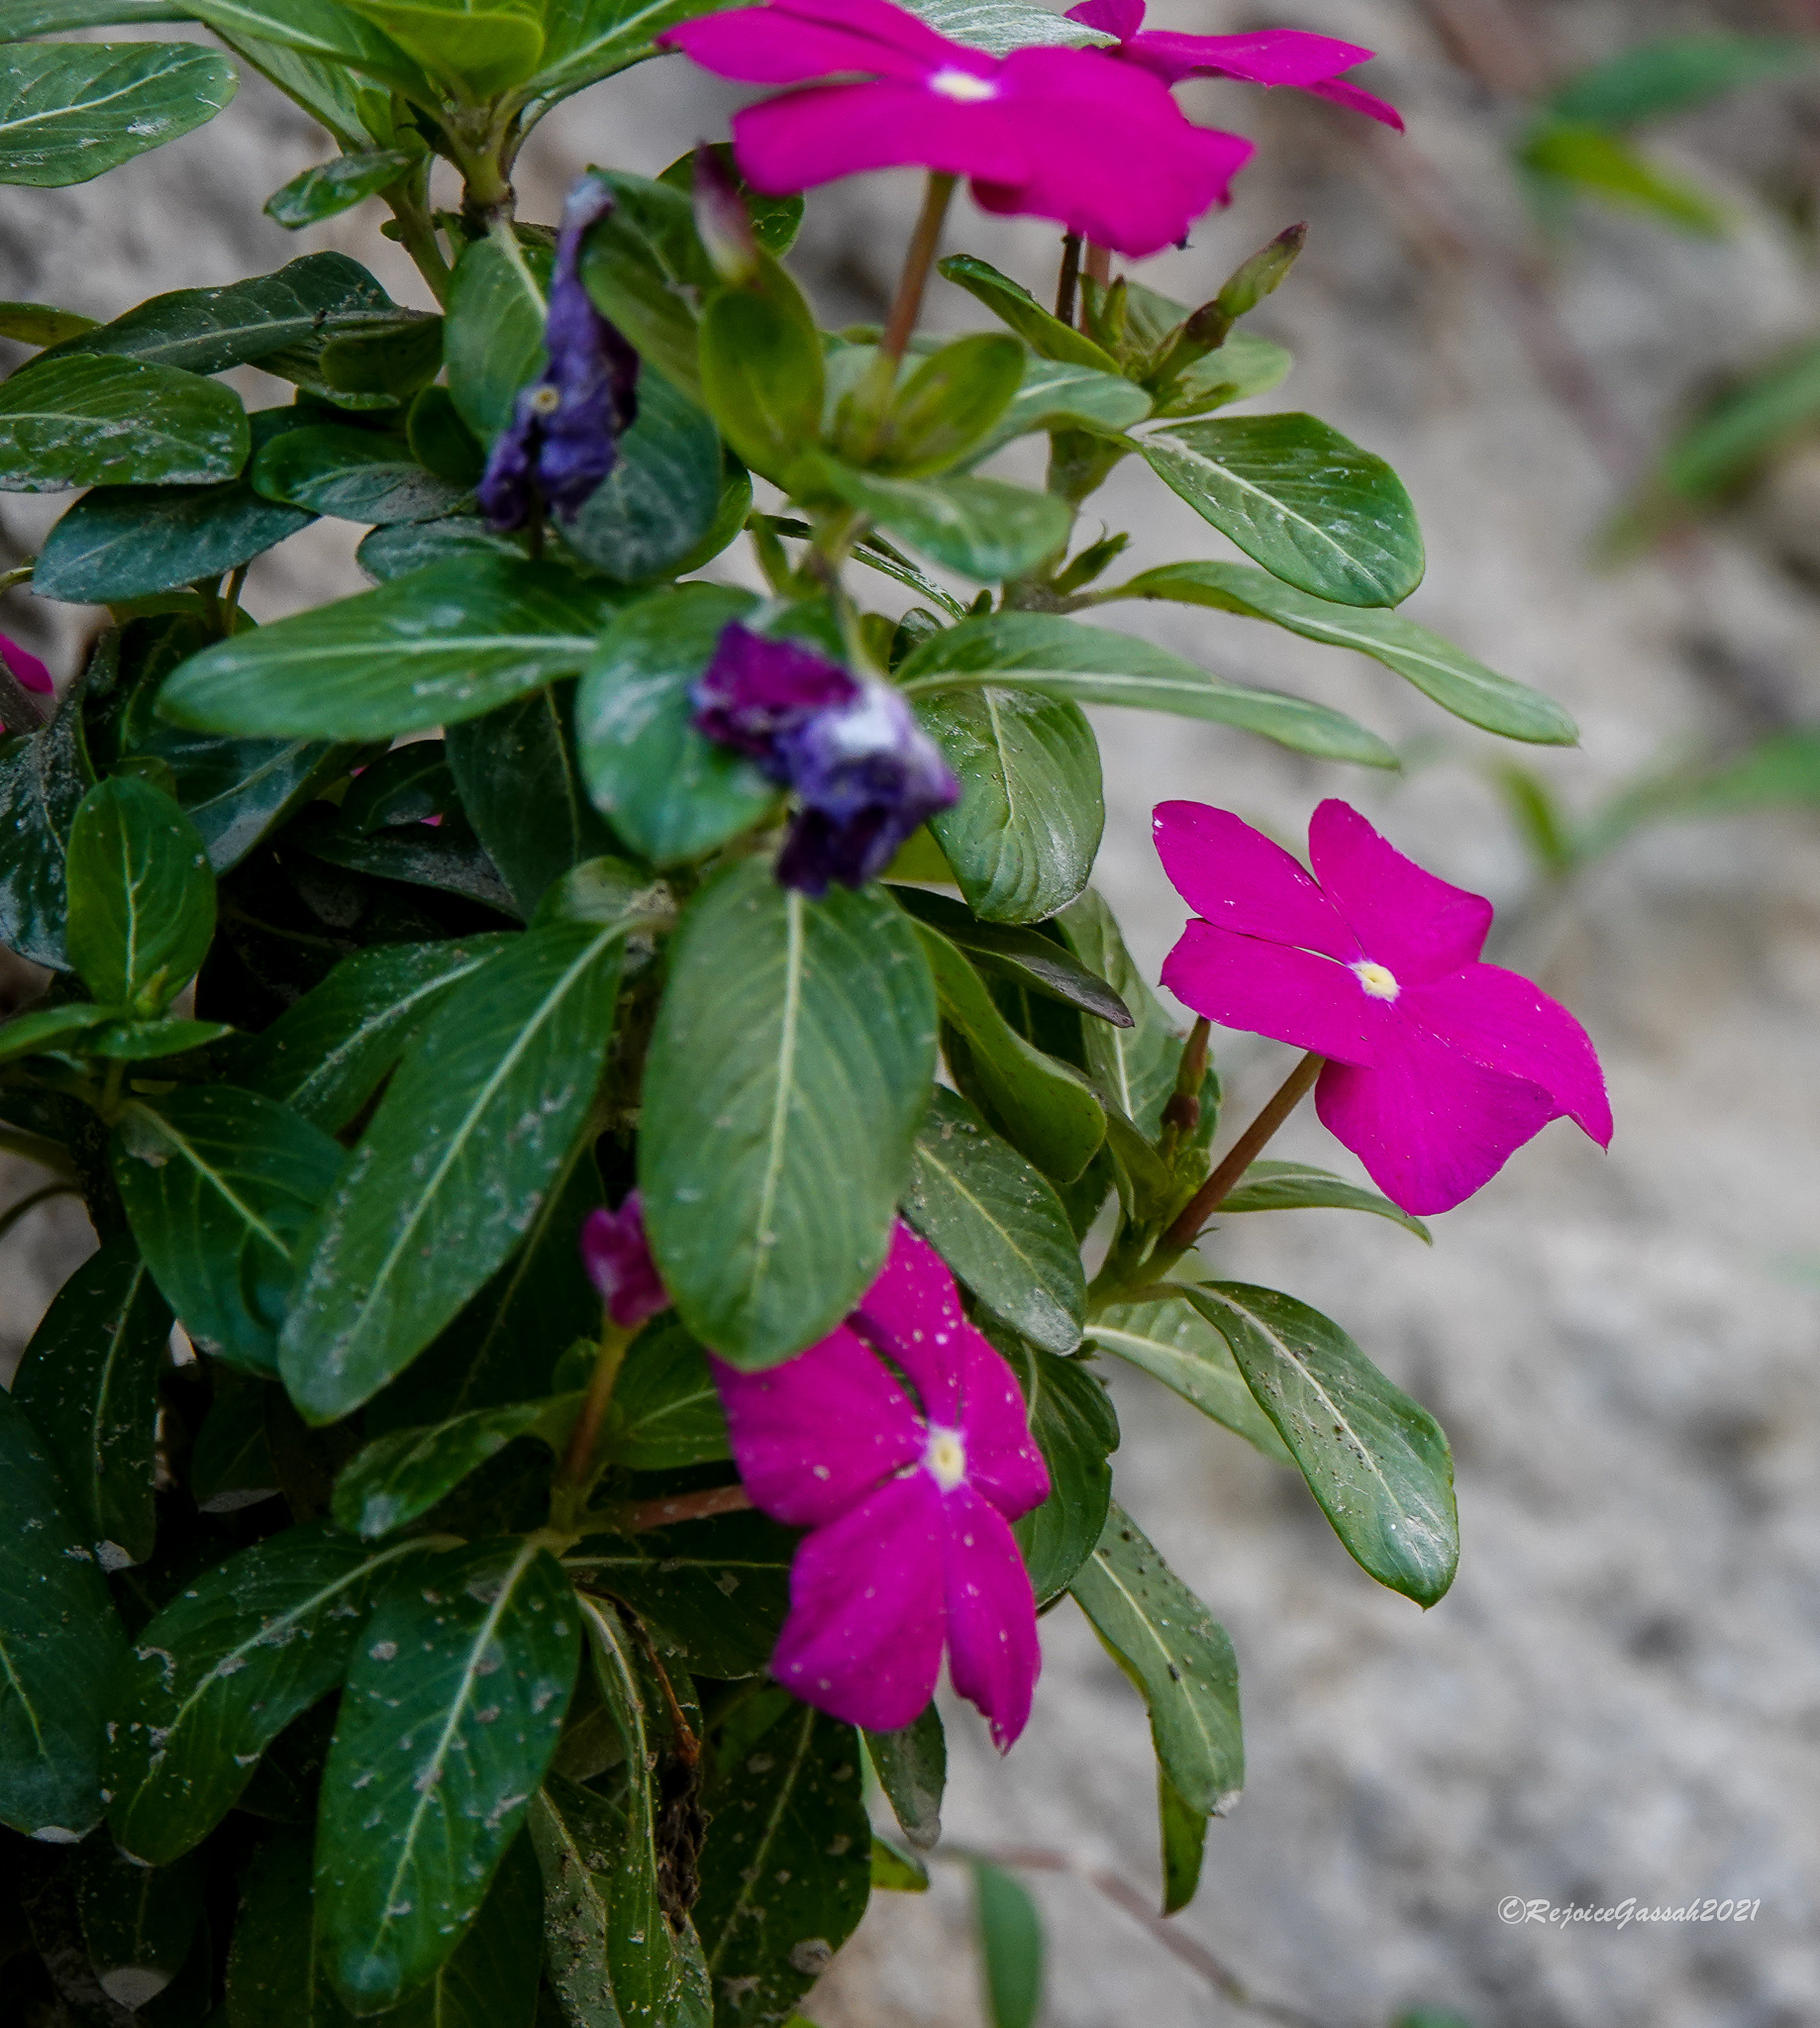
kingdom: Plantae
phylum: Tracheophyta
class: Magnoliopsida
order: Gentianales
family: Apocynaceae
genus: Catharanthus
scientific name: Catharanthus roseus
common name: Madagascar periwinkle
